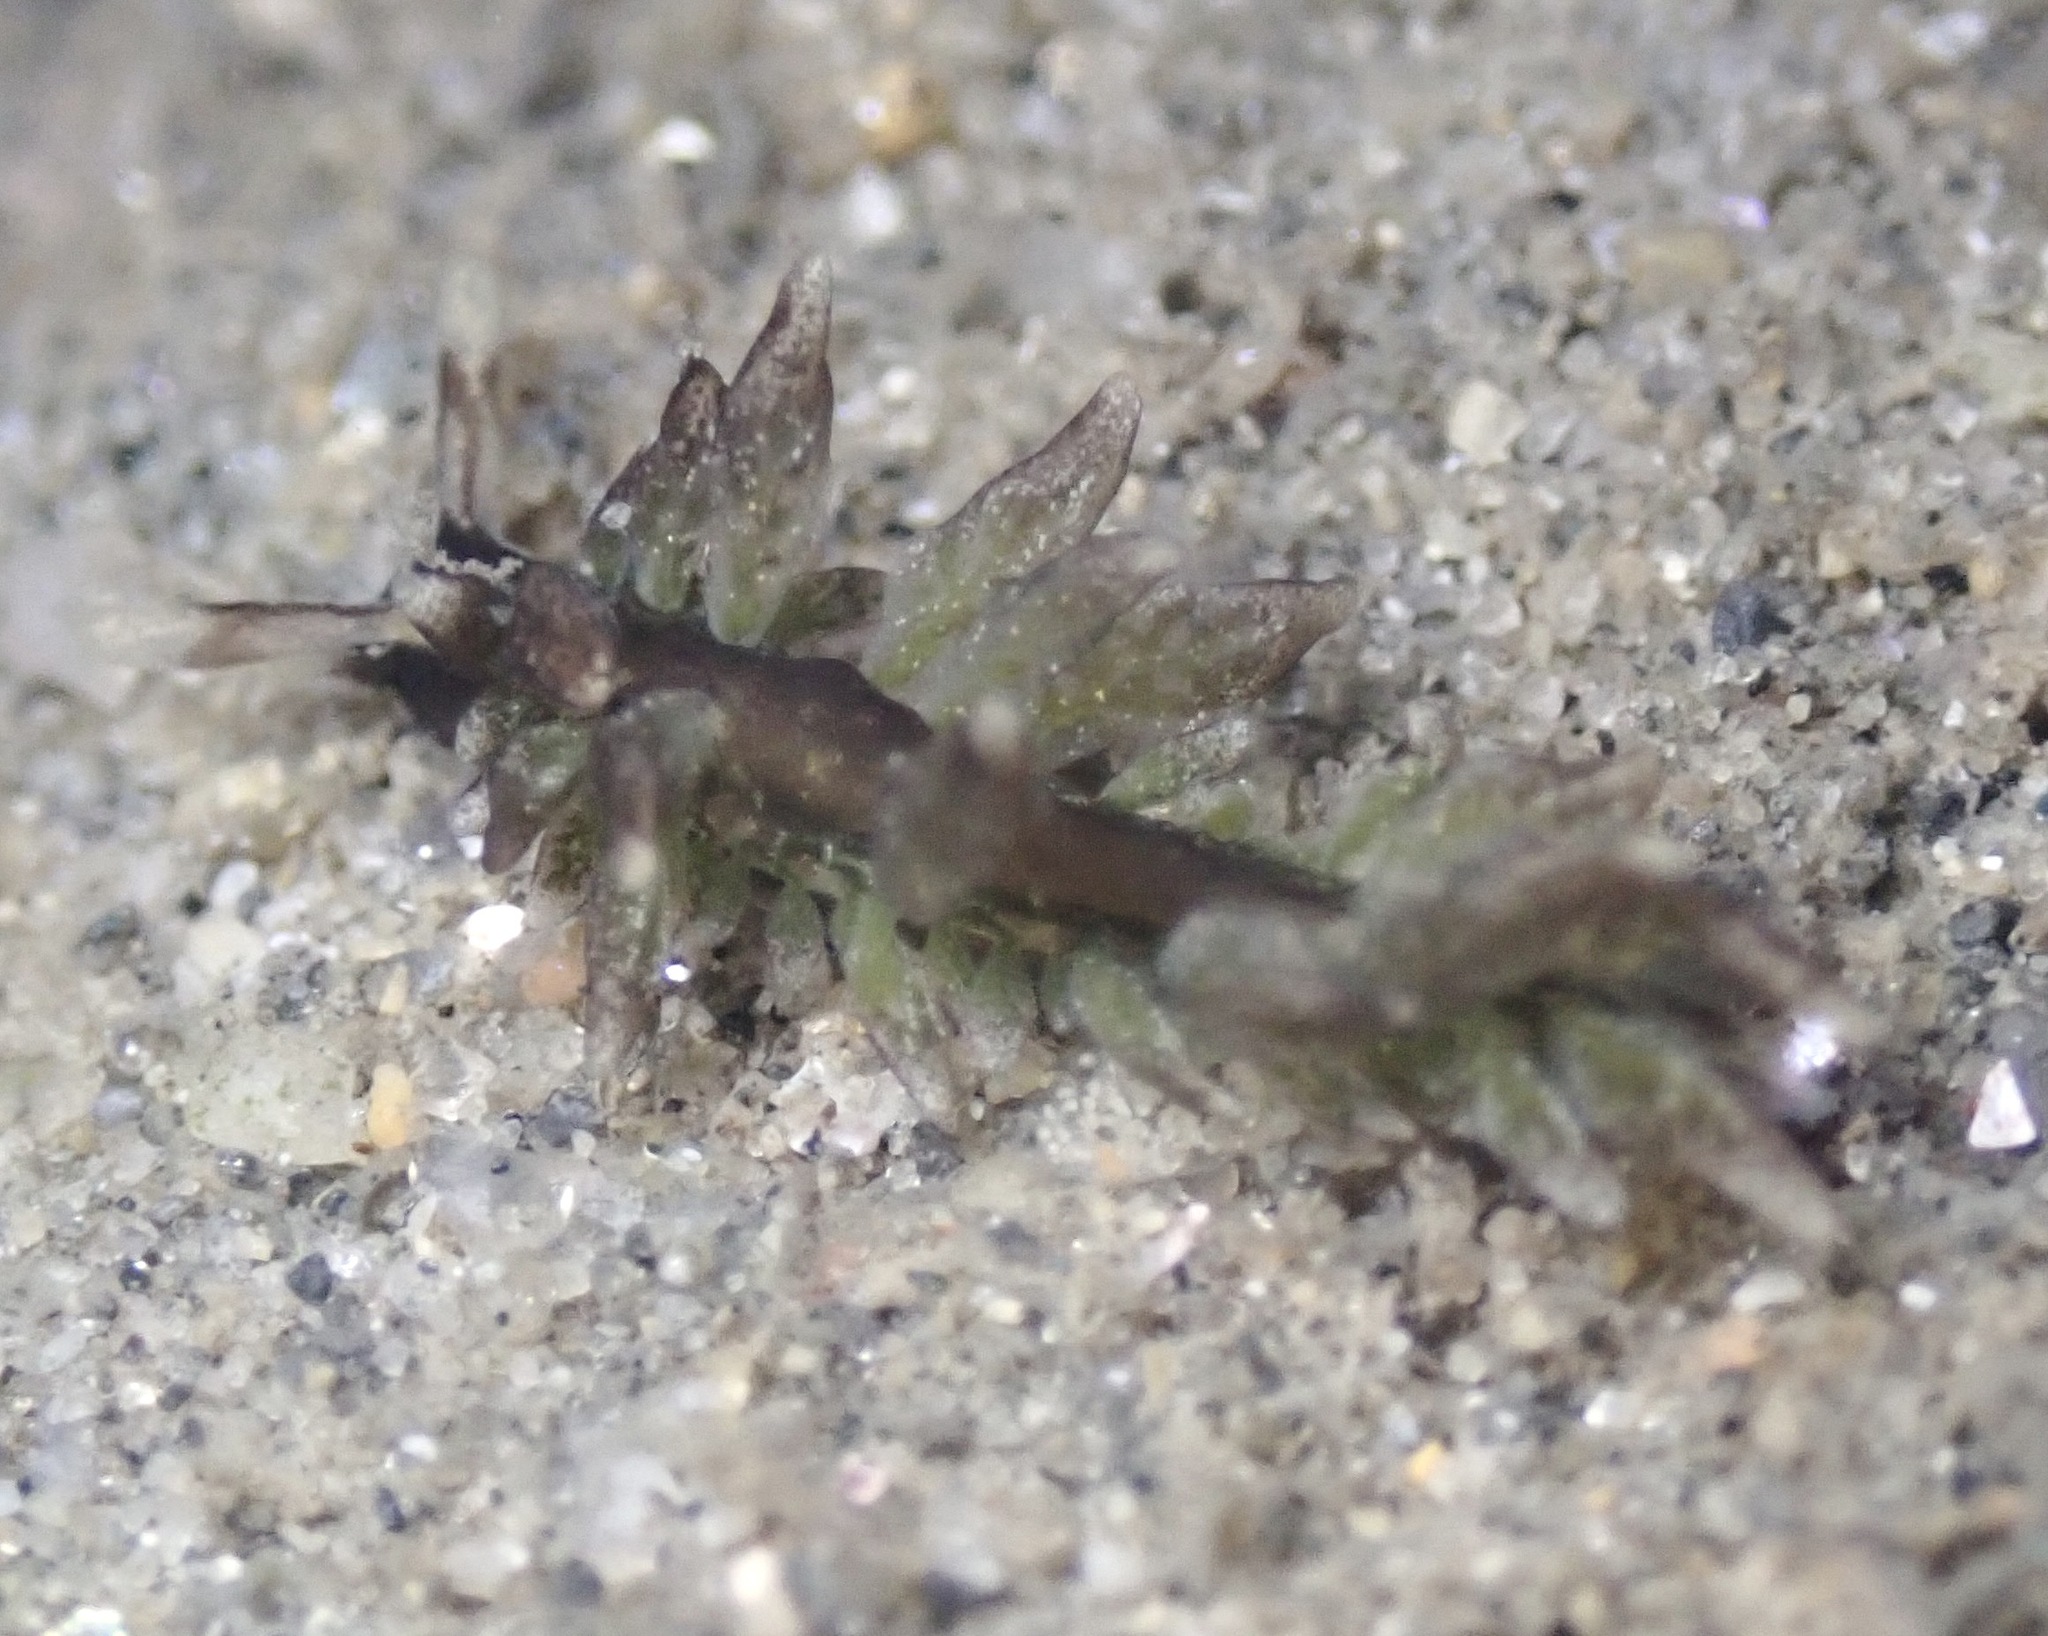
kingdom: Animalia
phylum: Mollusca
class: Gastropoda
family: Hermaeidae
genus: Aplysiopsis
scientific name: Aplysiopsis enteromorphae
